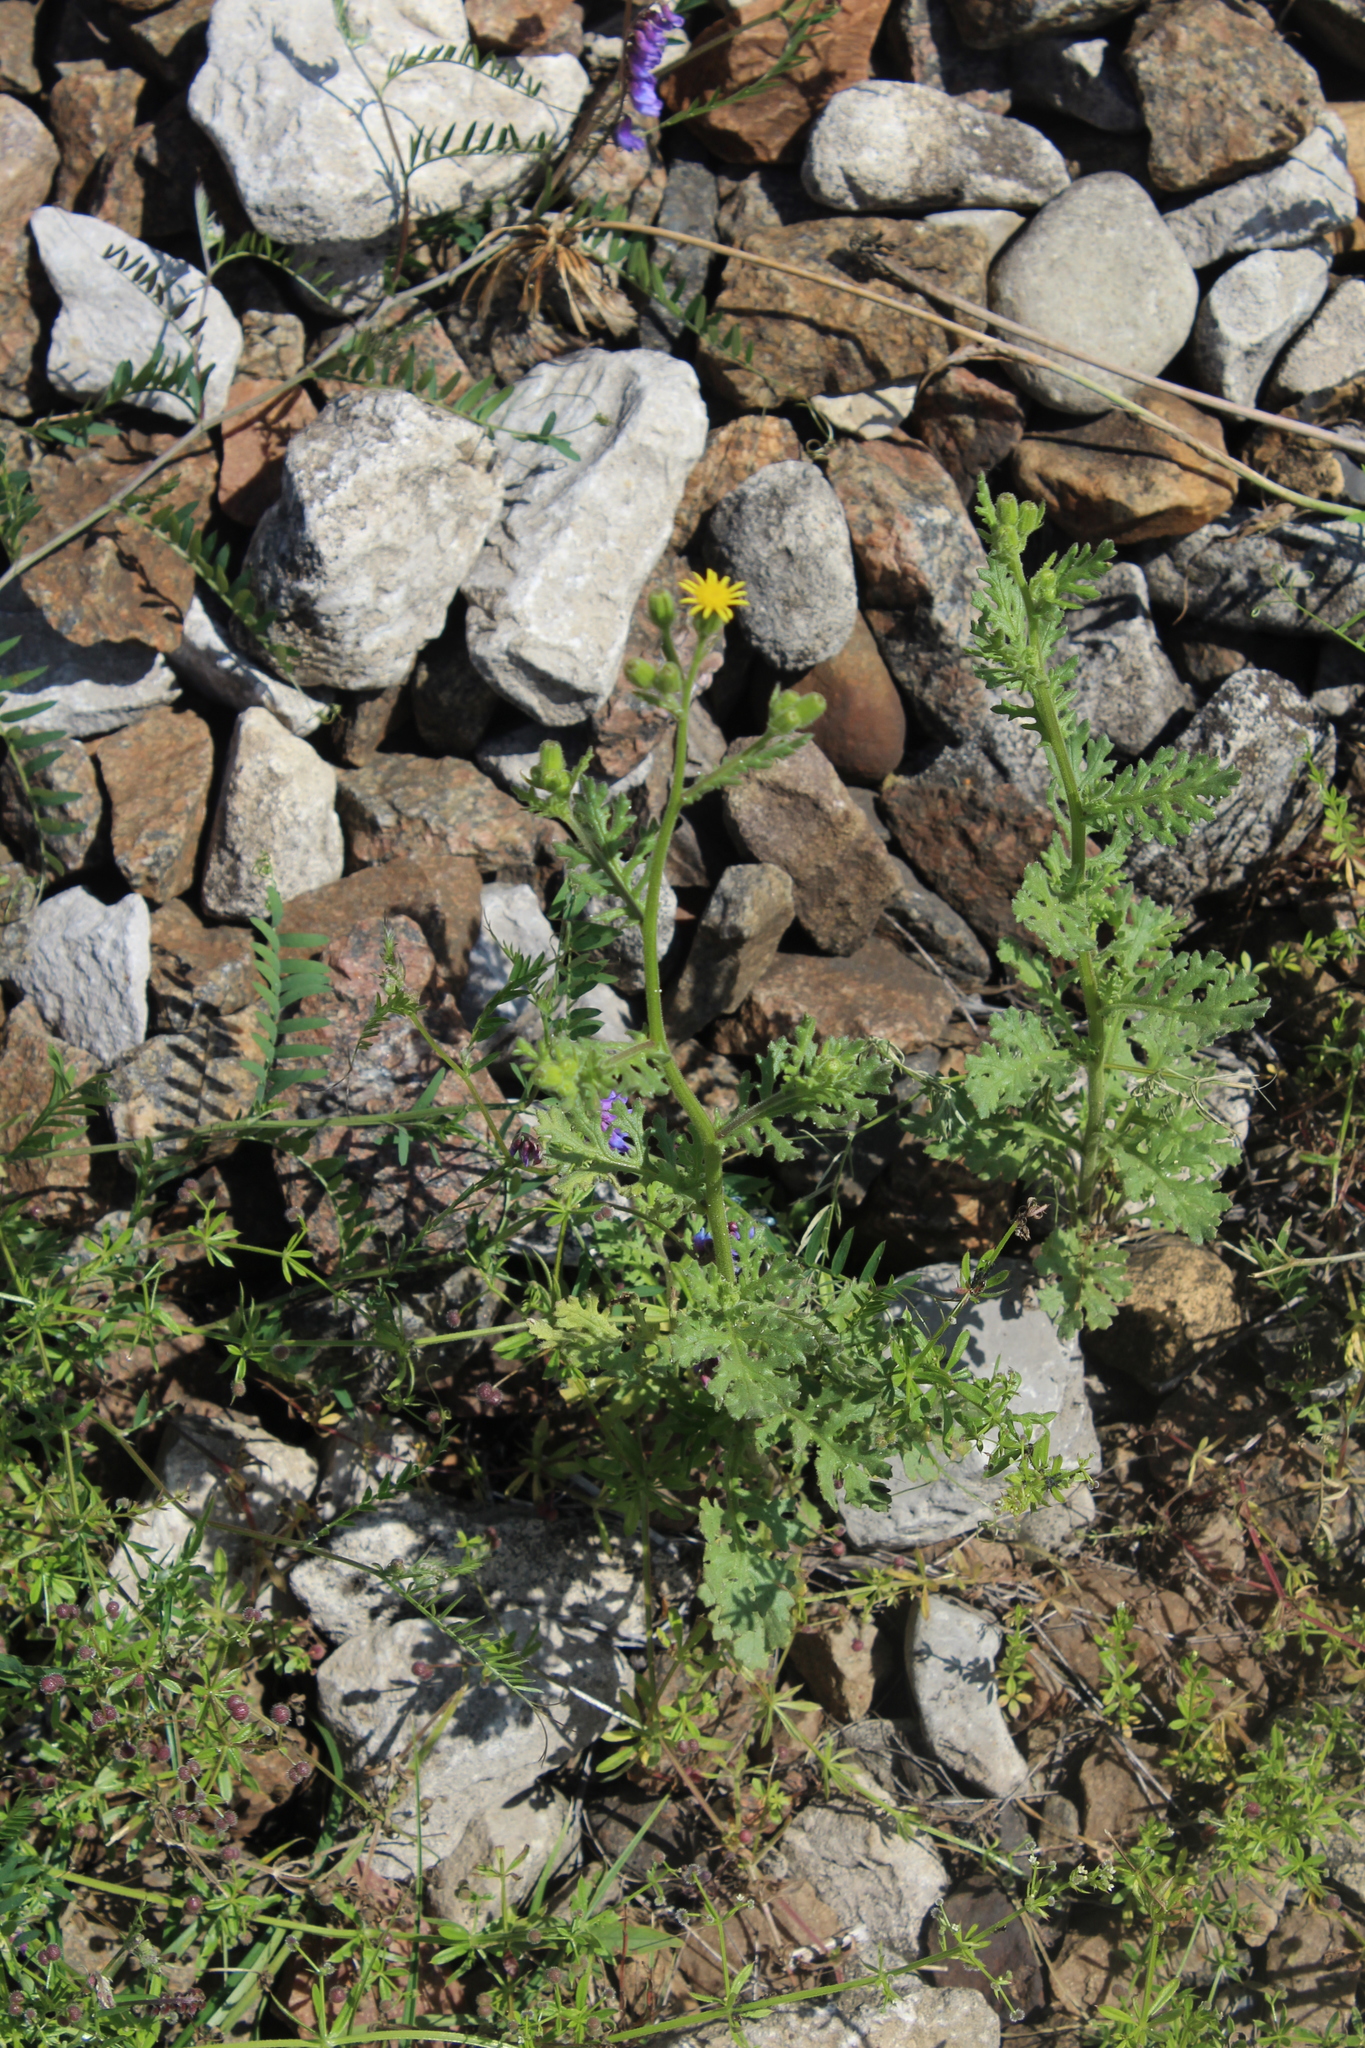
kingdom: Plantae
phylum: Tracheophyta
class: Magnoliopsida
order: Asterales
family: Asteraceae
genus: Senecio
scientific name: Senecio viscosus
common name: Sticky groundsel
